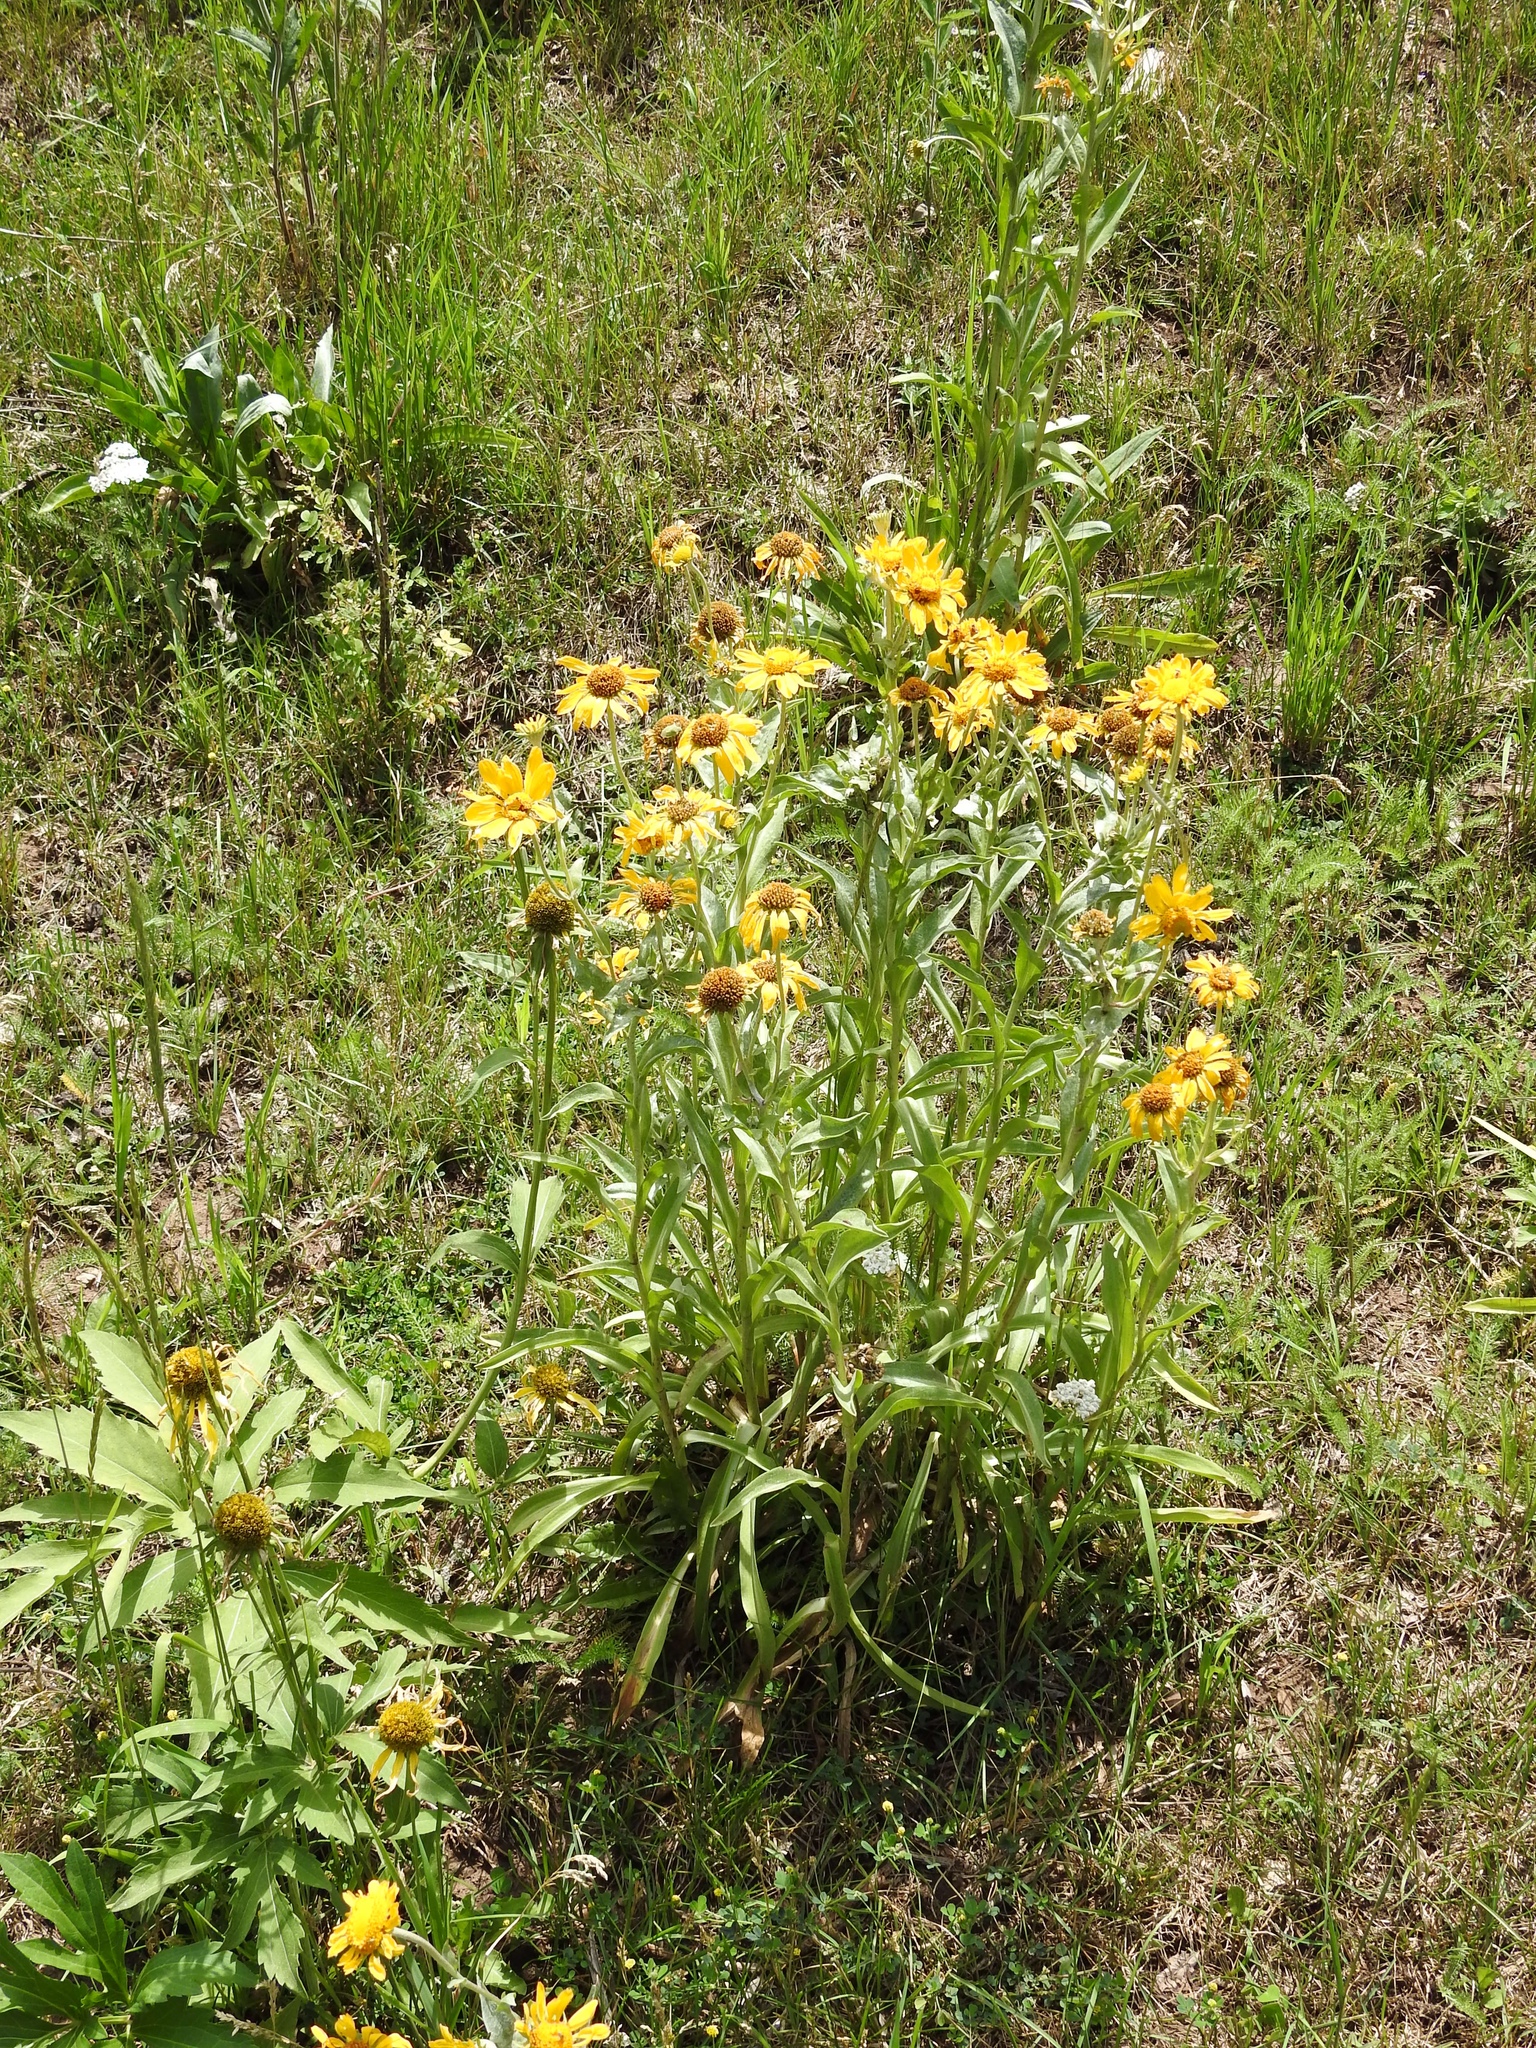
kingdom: Plantae
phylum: Tracheophyta
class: Magnoliopsida
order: Asterales
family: Asteraceae
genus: Rudbeckia
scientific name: Rudbeckia laciniata
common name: Coneflower
